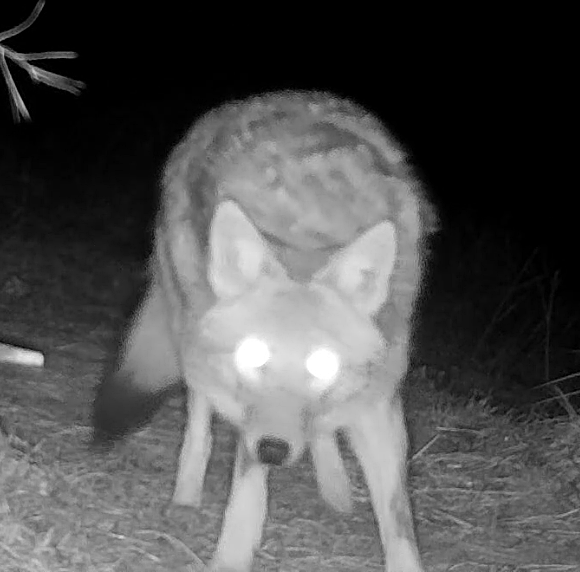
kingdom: Animalia
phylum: Chordata
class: Mammalia
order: Carnivora
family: Canidae
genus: Canis
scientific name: Canis latrans
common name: Coyote
